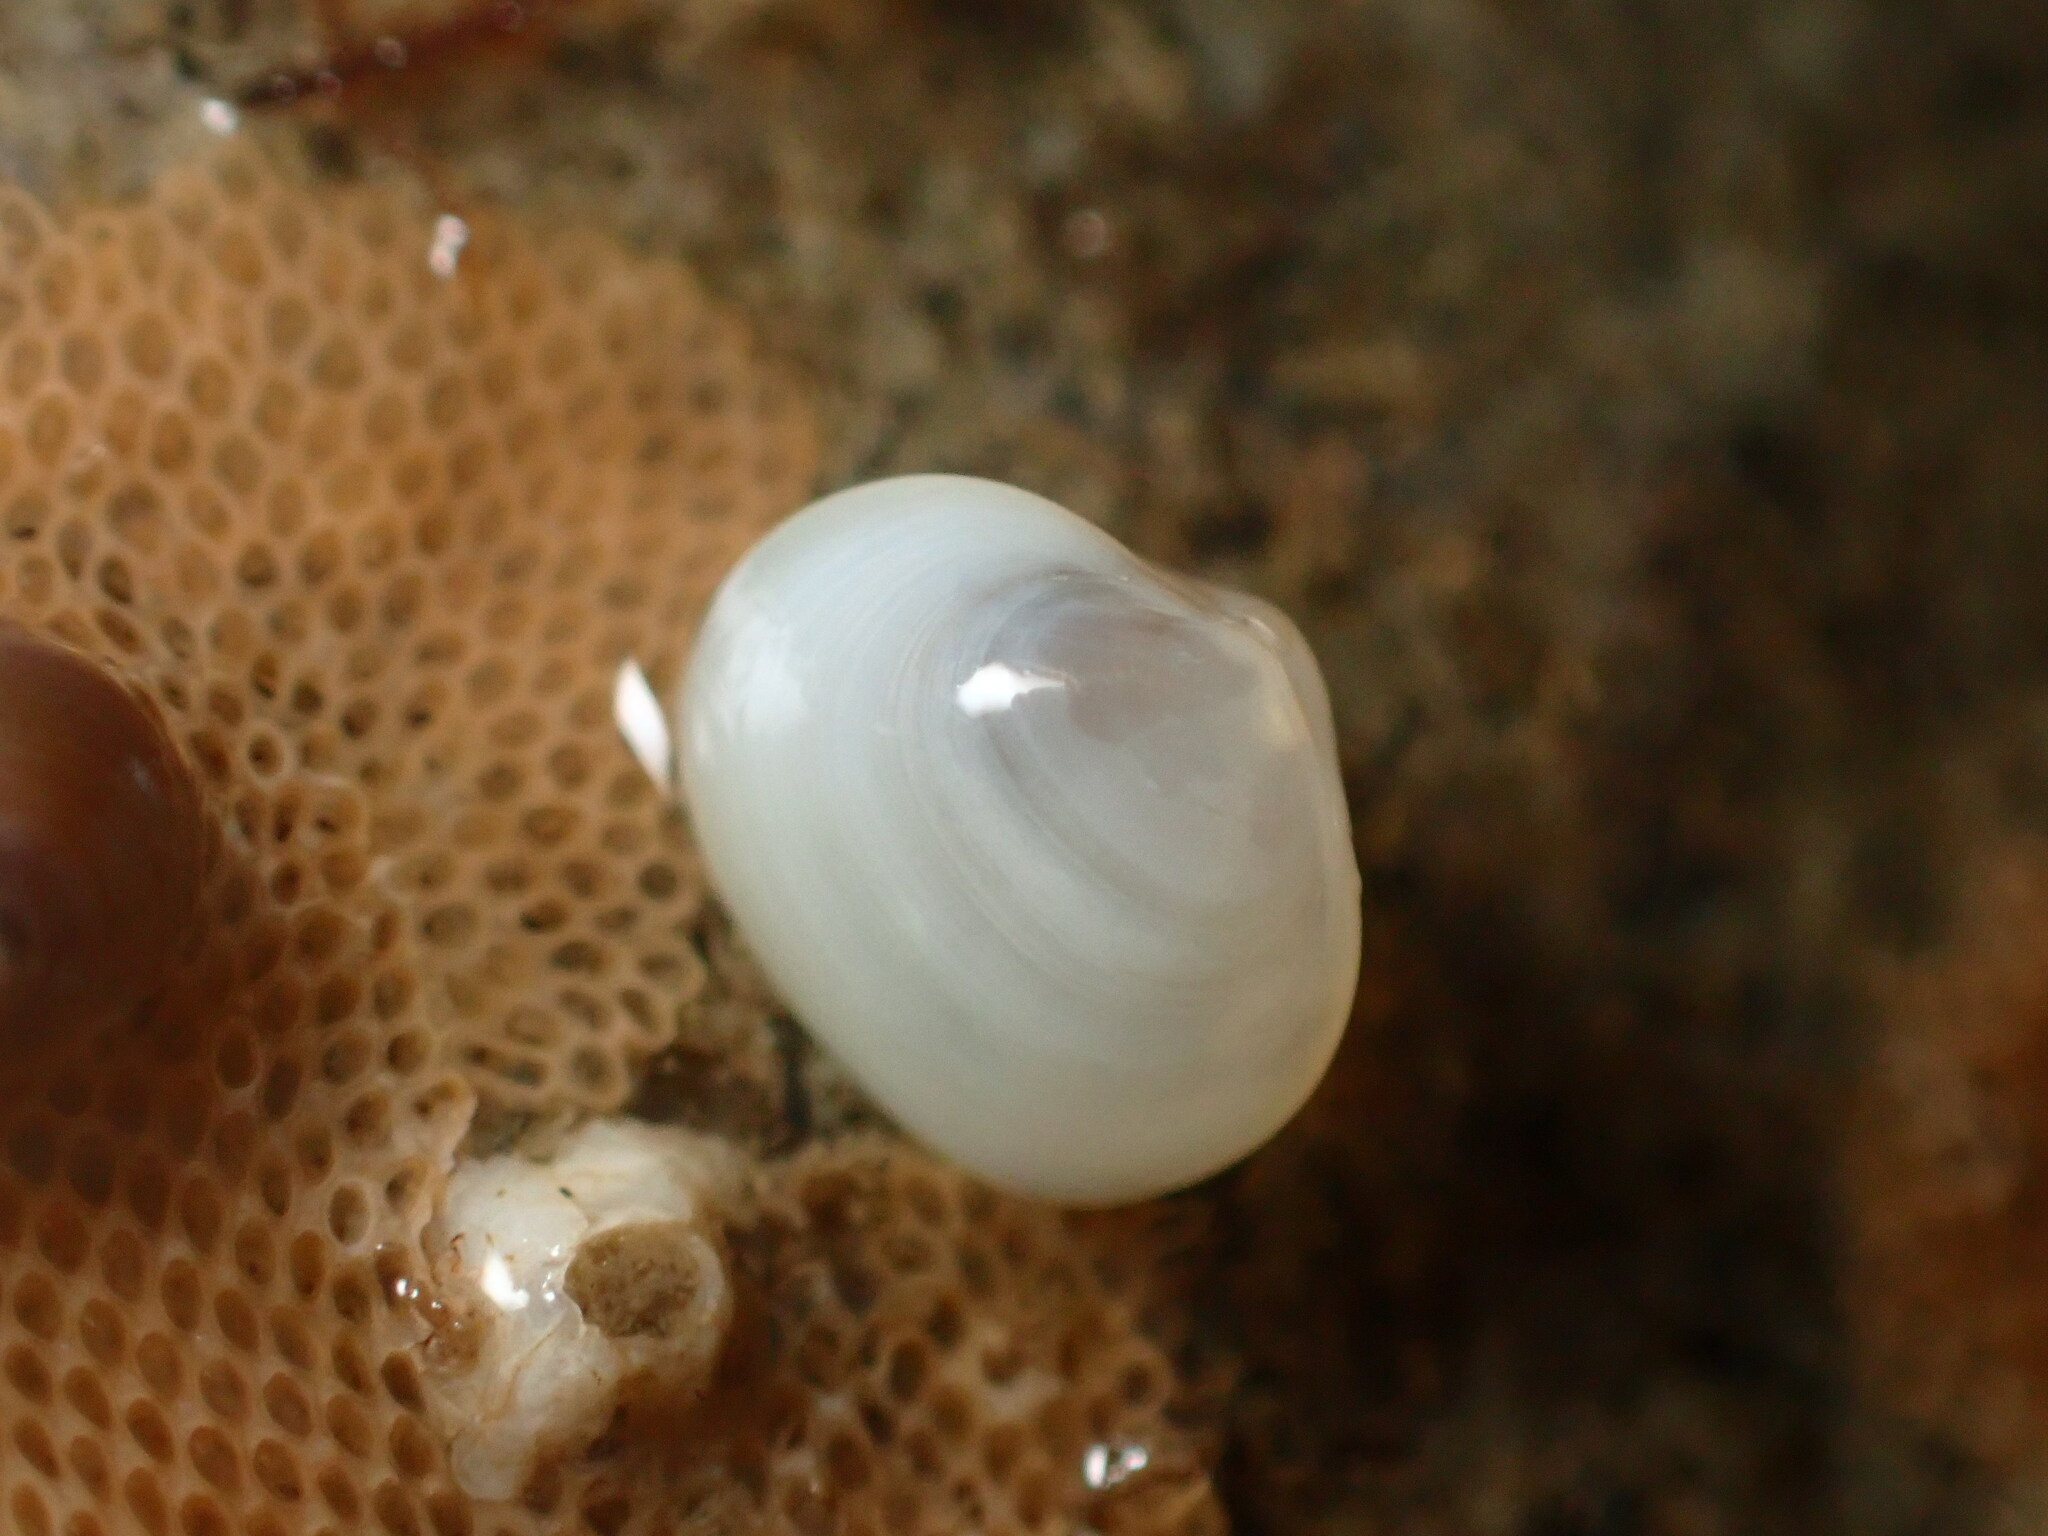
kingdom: Animalia
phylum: Mollusca
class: Bivalvia
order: Galeommatida
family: Lasaeidae
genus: Kellia
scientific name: Kellia laperousii
